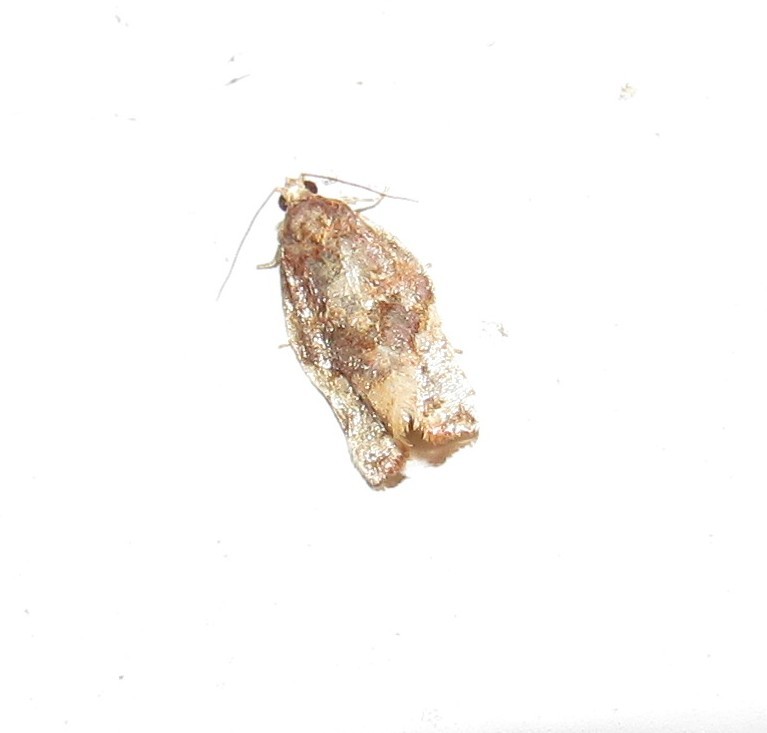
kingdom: Animalia
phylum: Arthropoda
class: Insecta
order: Lepidoptera
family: Tortricidae
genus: Argyrotaenia
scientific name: Argyrotaenia sphaleropa
